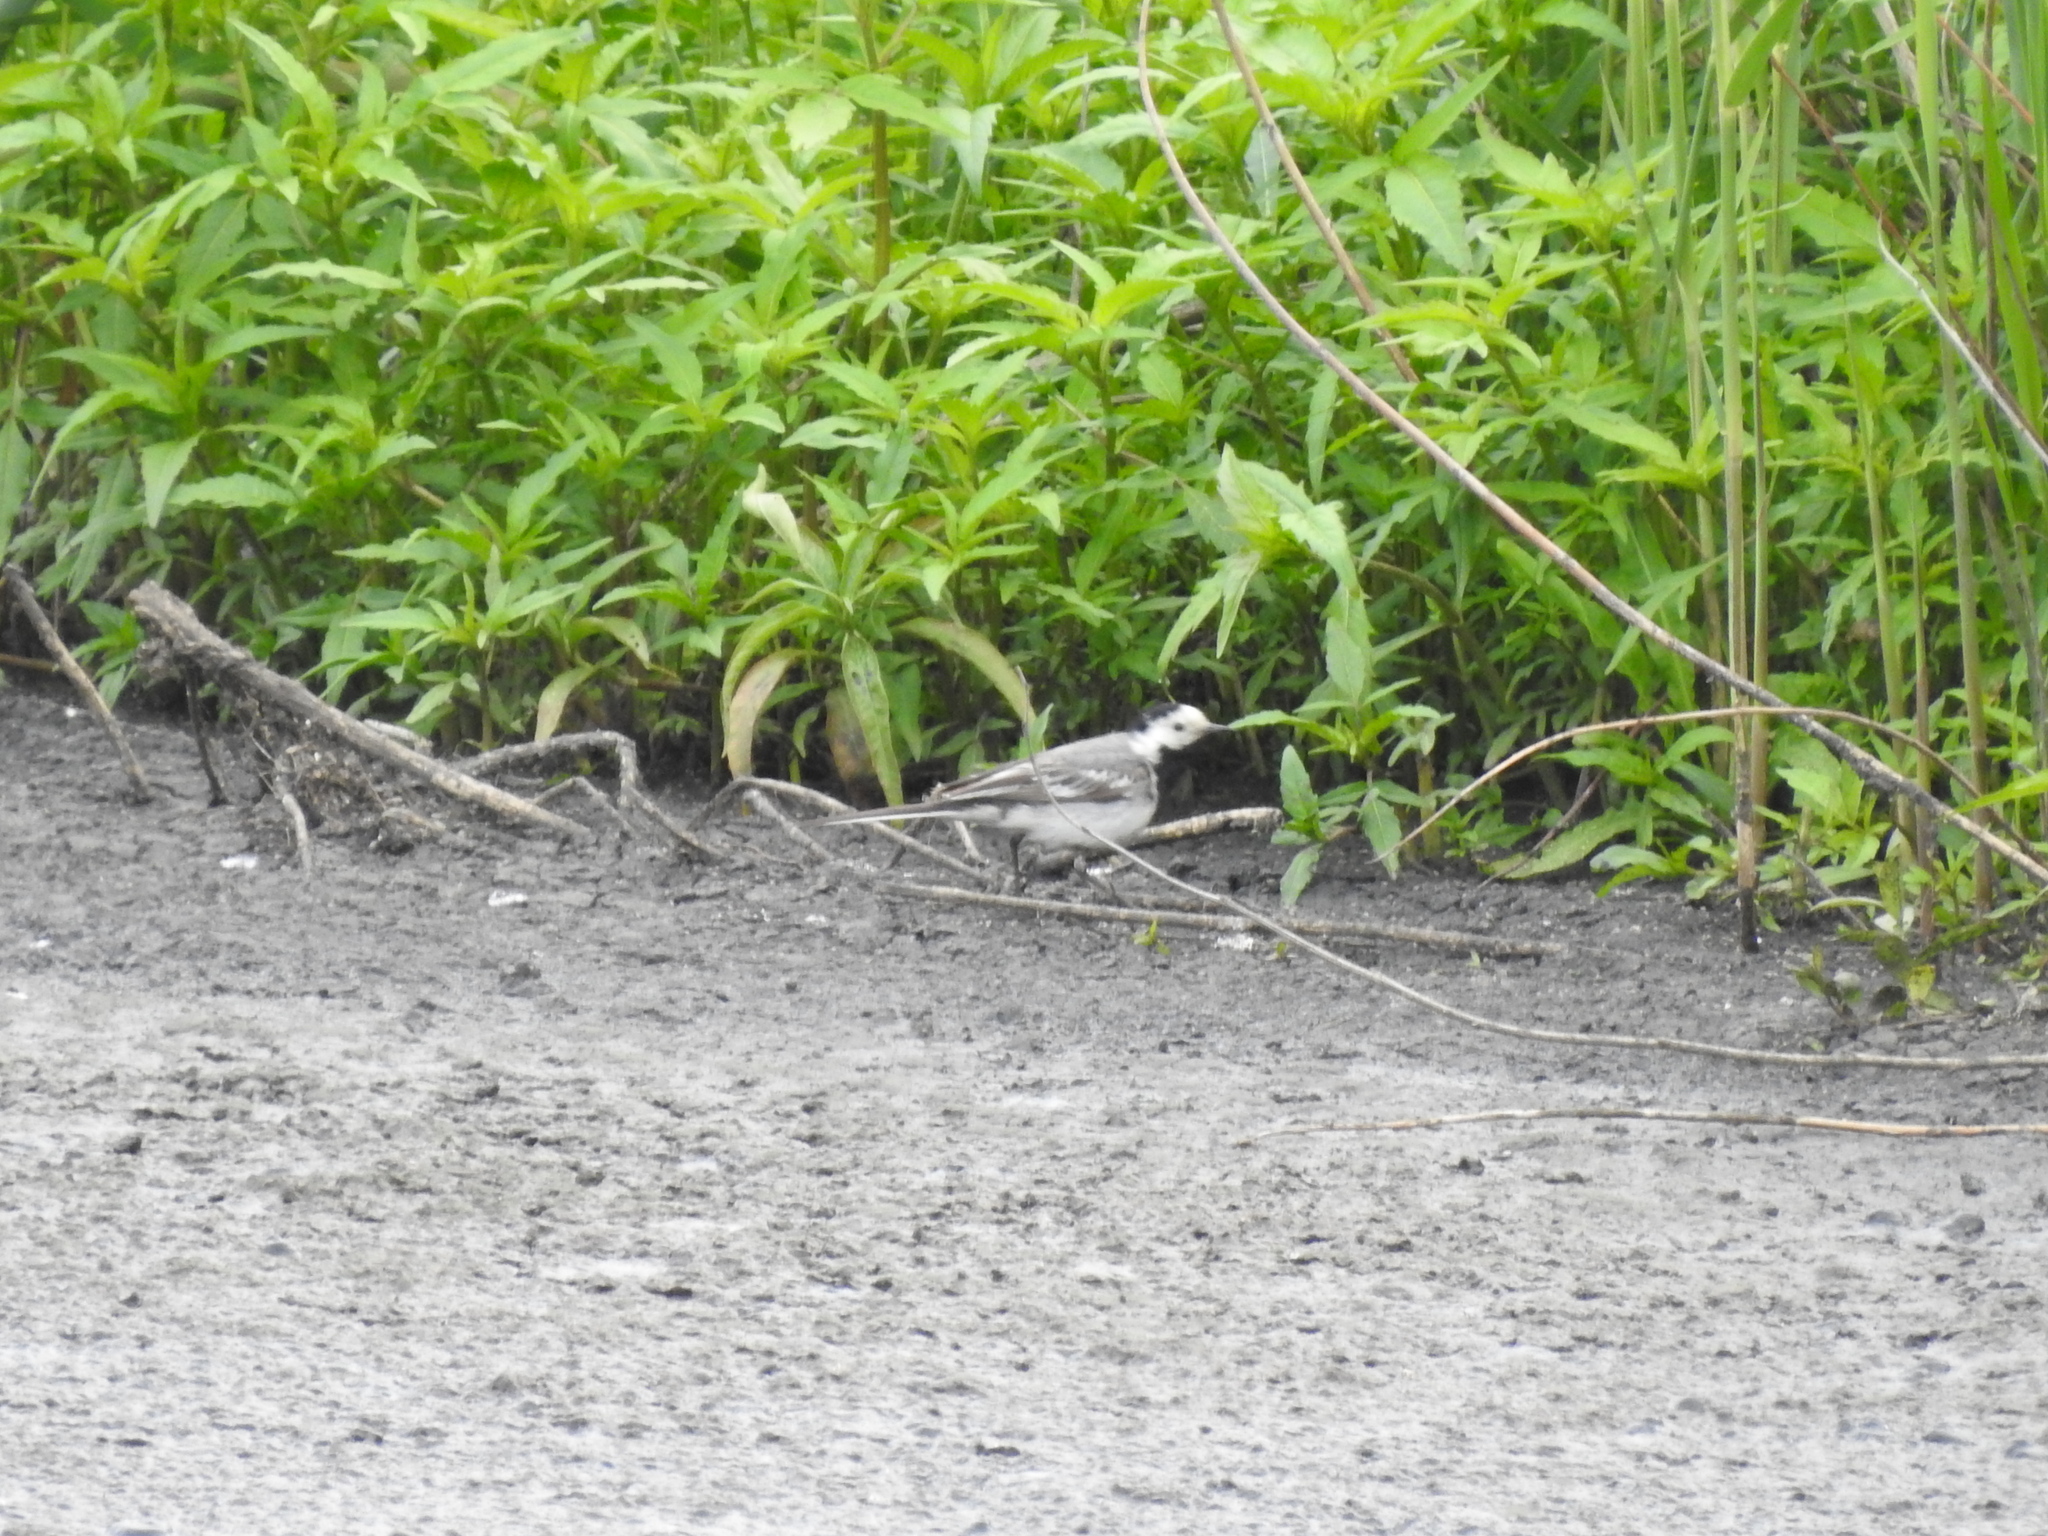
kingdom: Animalia
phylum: Chordata
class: Aves
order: Passeriformes
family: Motacillidae
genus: Motacilla
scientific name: Motacilla alba
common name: White wagtail
